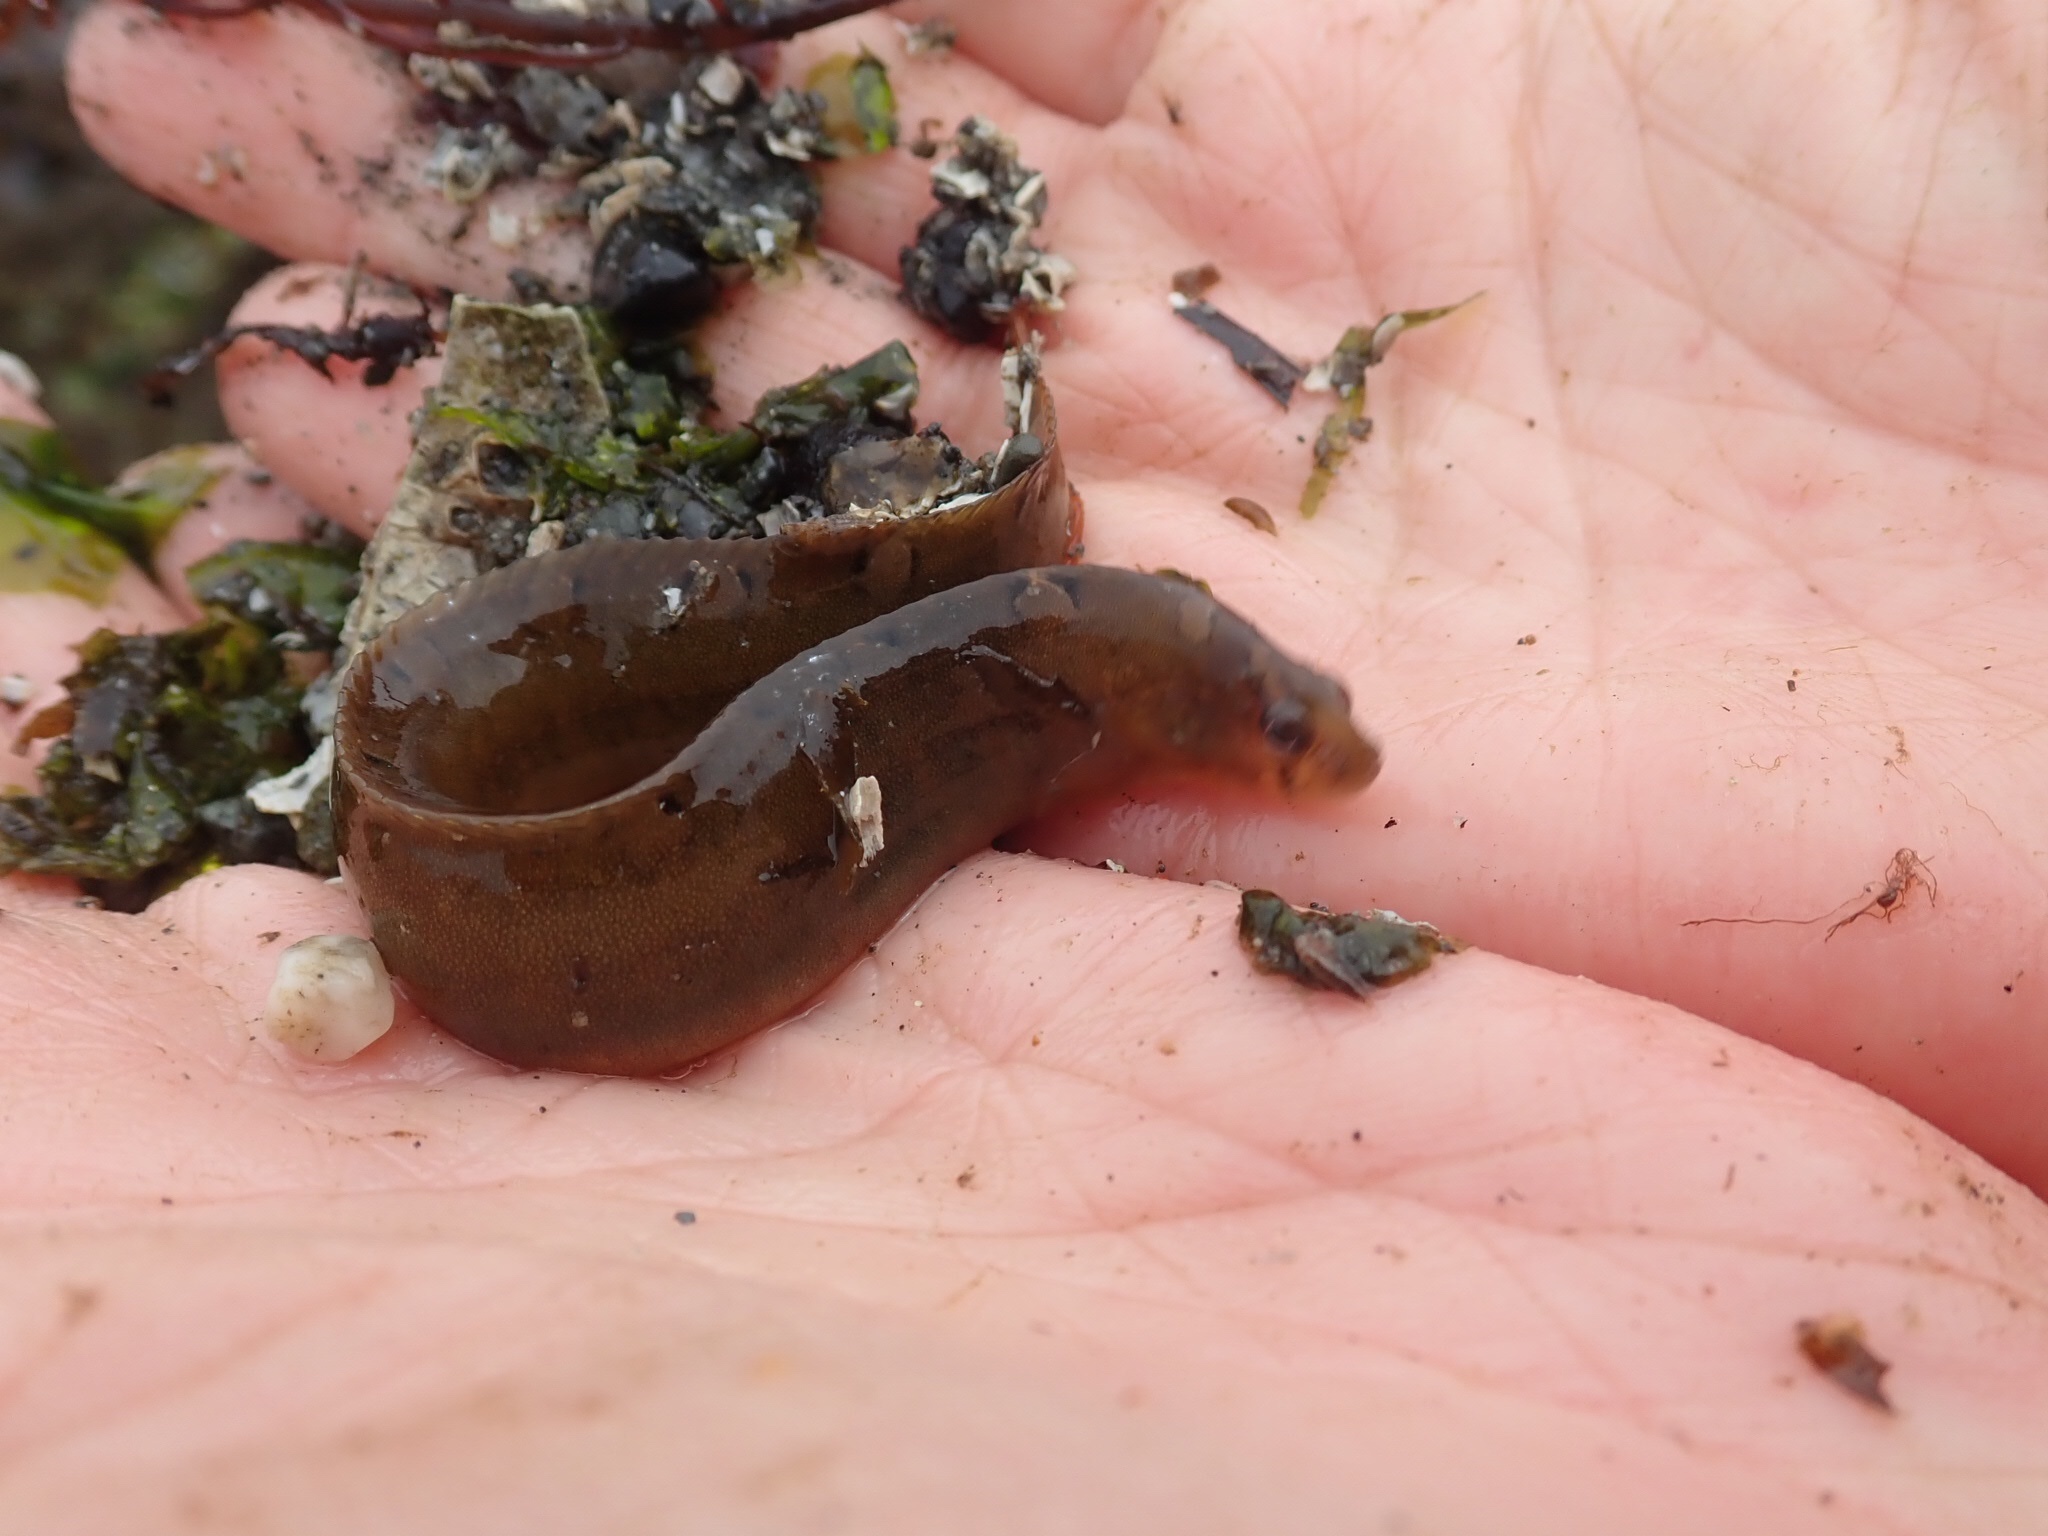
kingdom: Animalia
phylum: Chordata
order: Perciformes
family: Pholidae
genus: Pholis
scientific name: Pholis laeta
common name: Crescent gunnel
